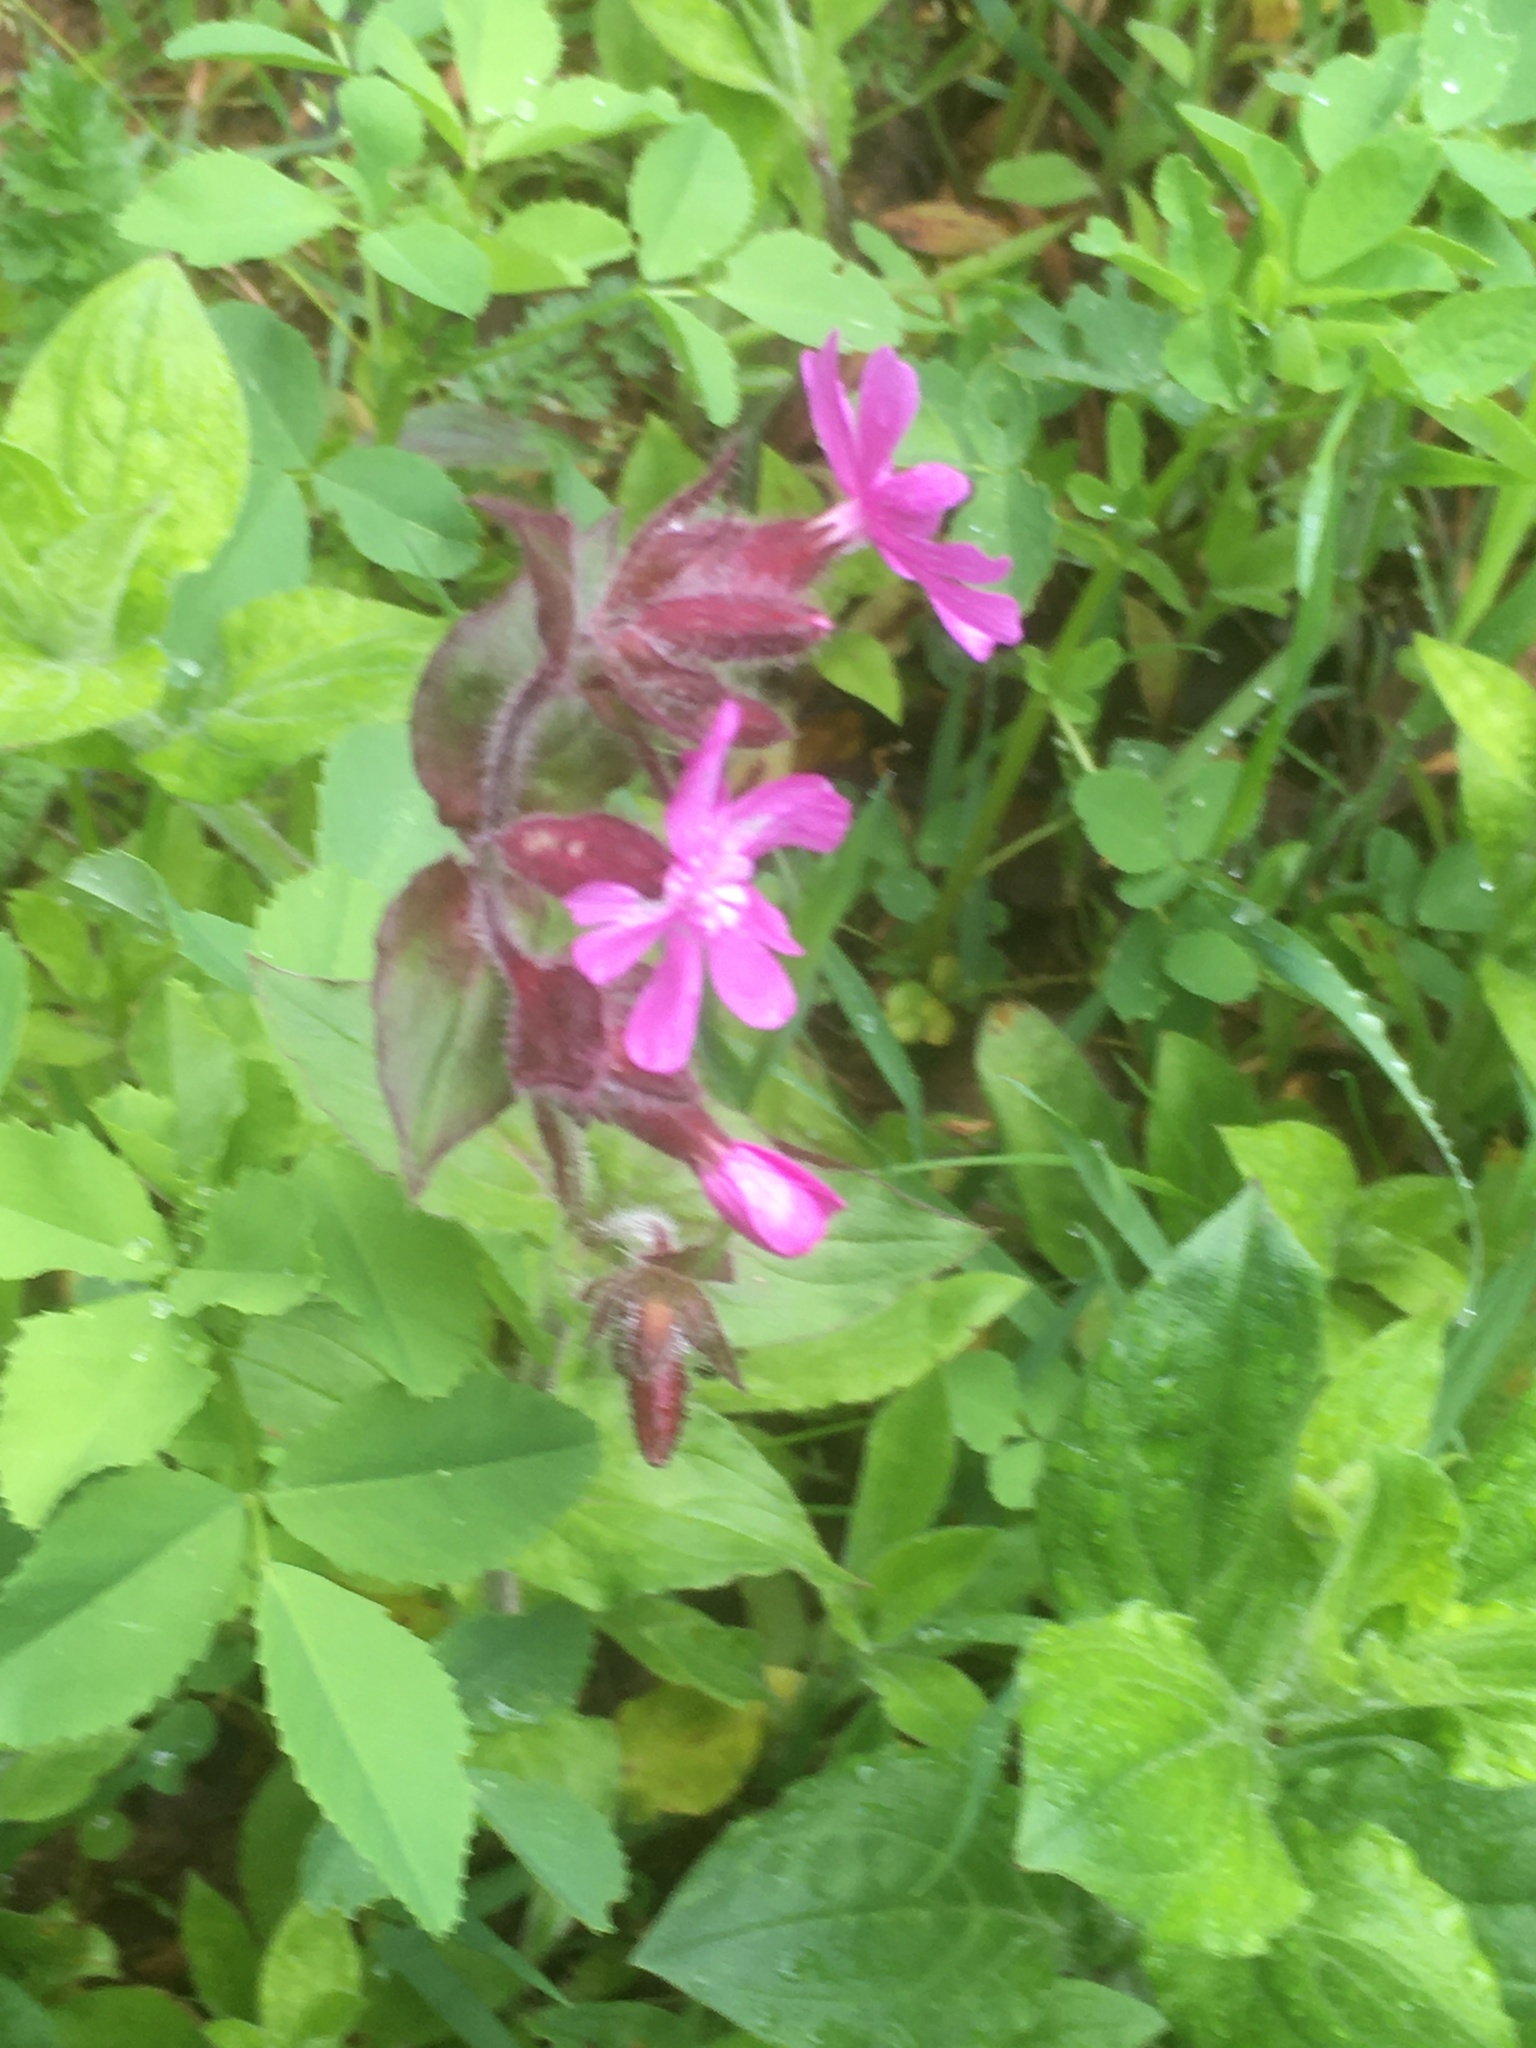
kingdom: Plantae
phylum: Tracheophyta
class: Magnoliopsida
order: Caryophyllales
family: Caryophyllaceae
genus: Silene
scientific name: Silene dioica
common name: Red campion
